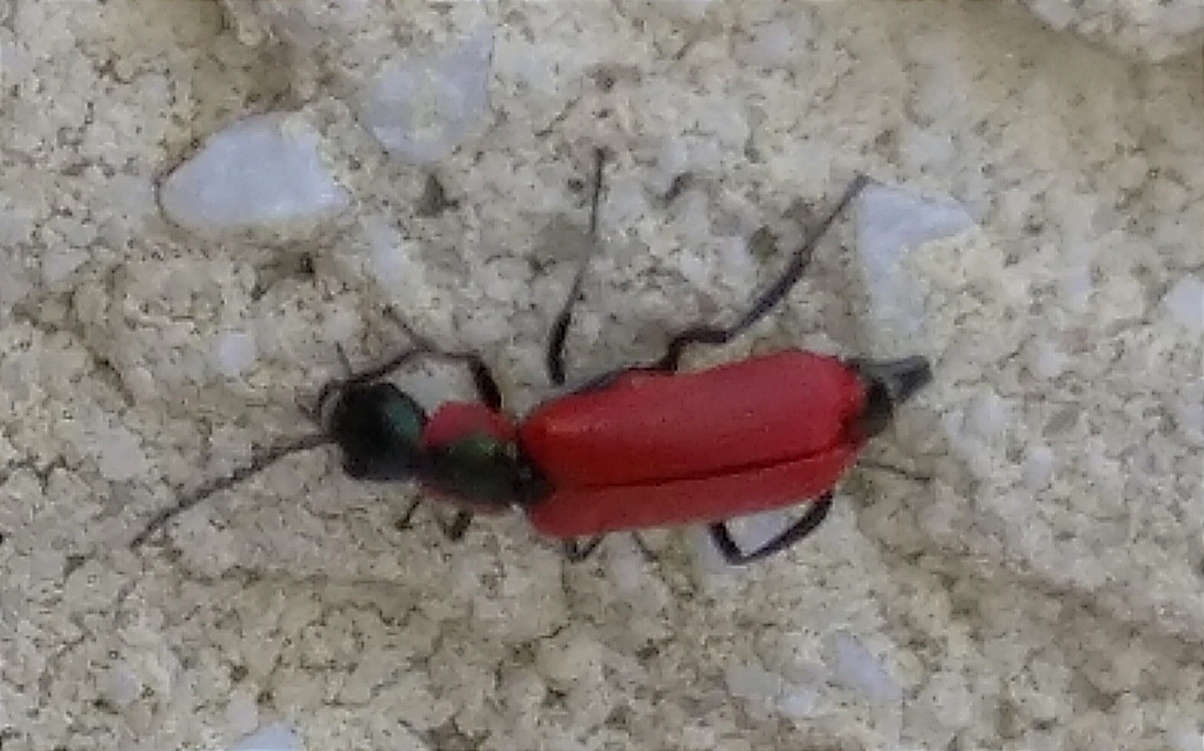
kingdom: Animalia
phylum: Arthropoda
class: Insecta
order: Coleoptera
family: Melyridae
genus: Anthocomus
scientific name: Anthocomus rufus
